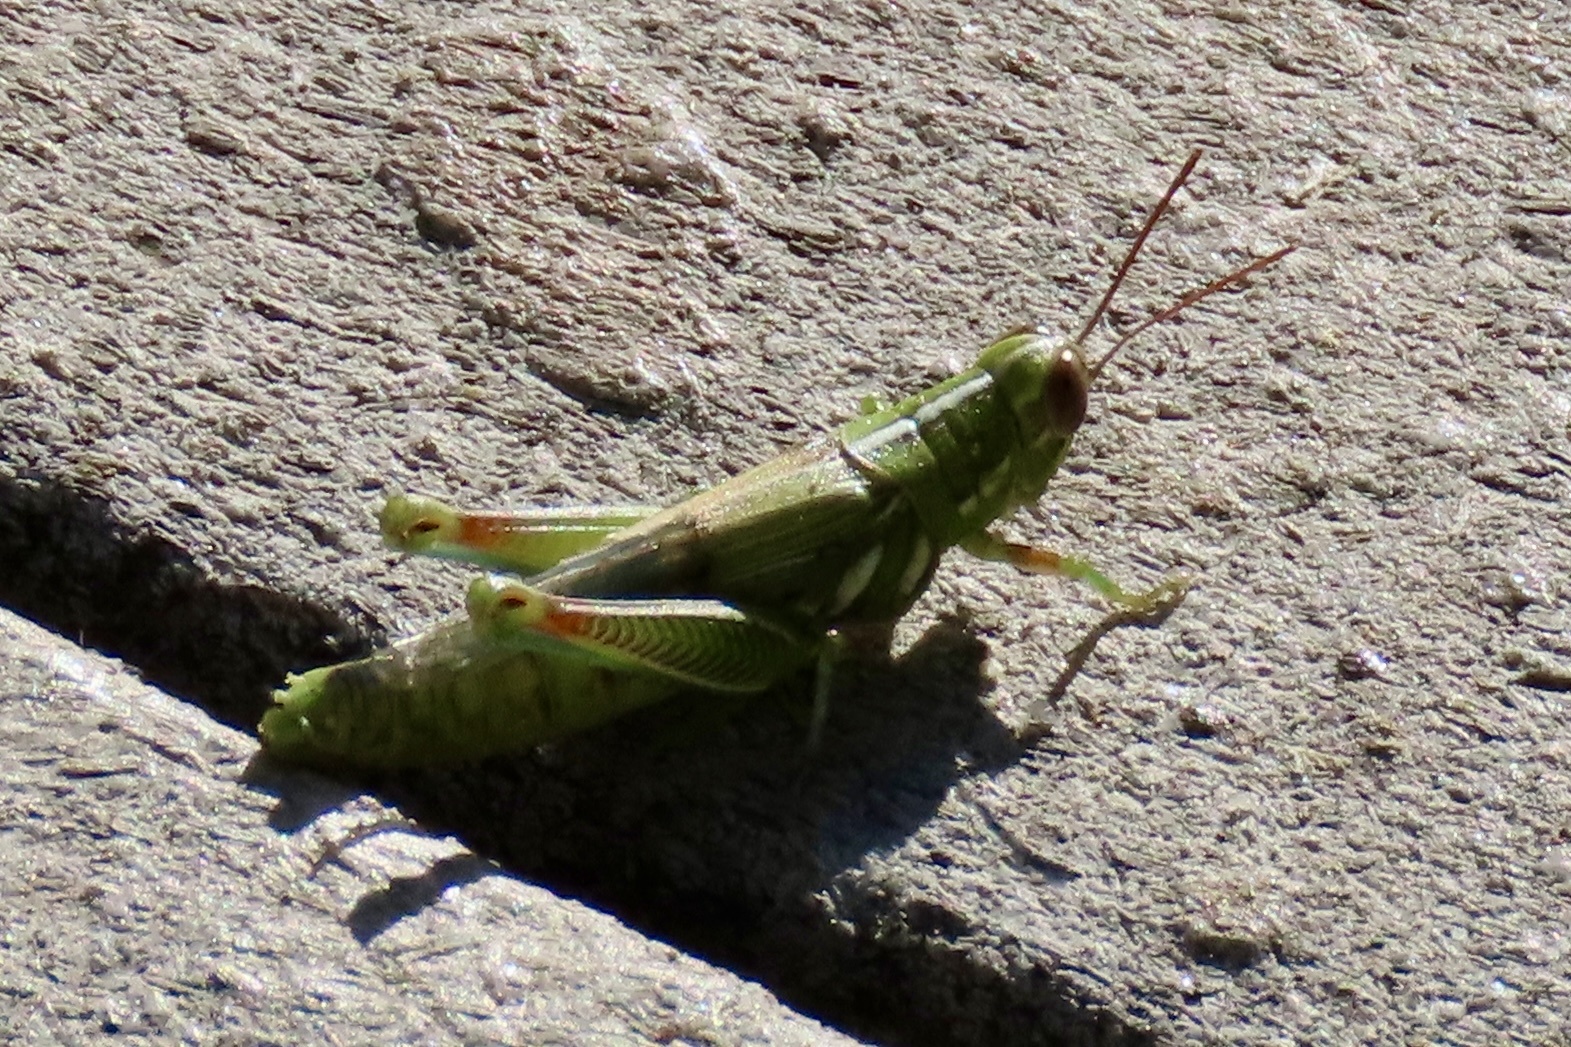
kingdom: Animalia
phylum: Arthropoda
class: Insecta
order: Orthoptera
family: Acrididae
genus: Hesperotettix
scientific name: Hesperotettix viridis
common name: Meadow purple-striped grasshopper
